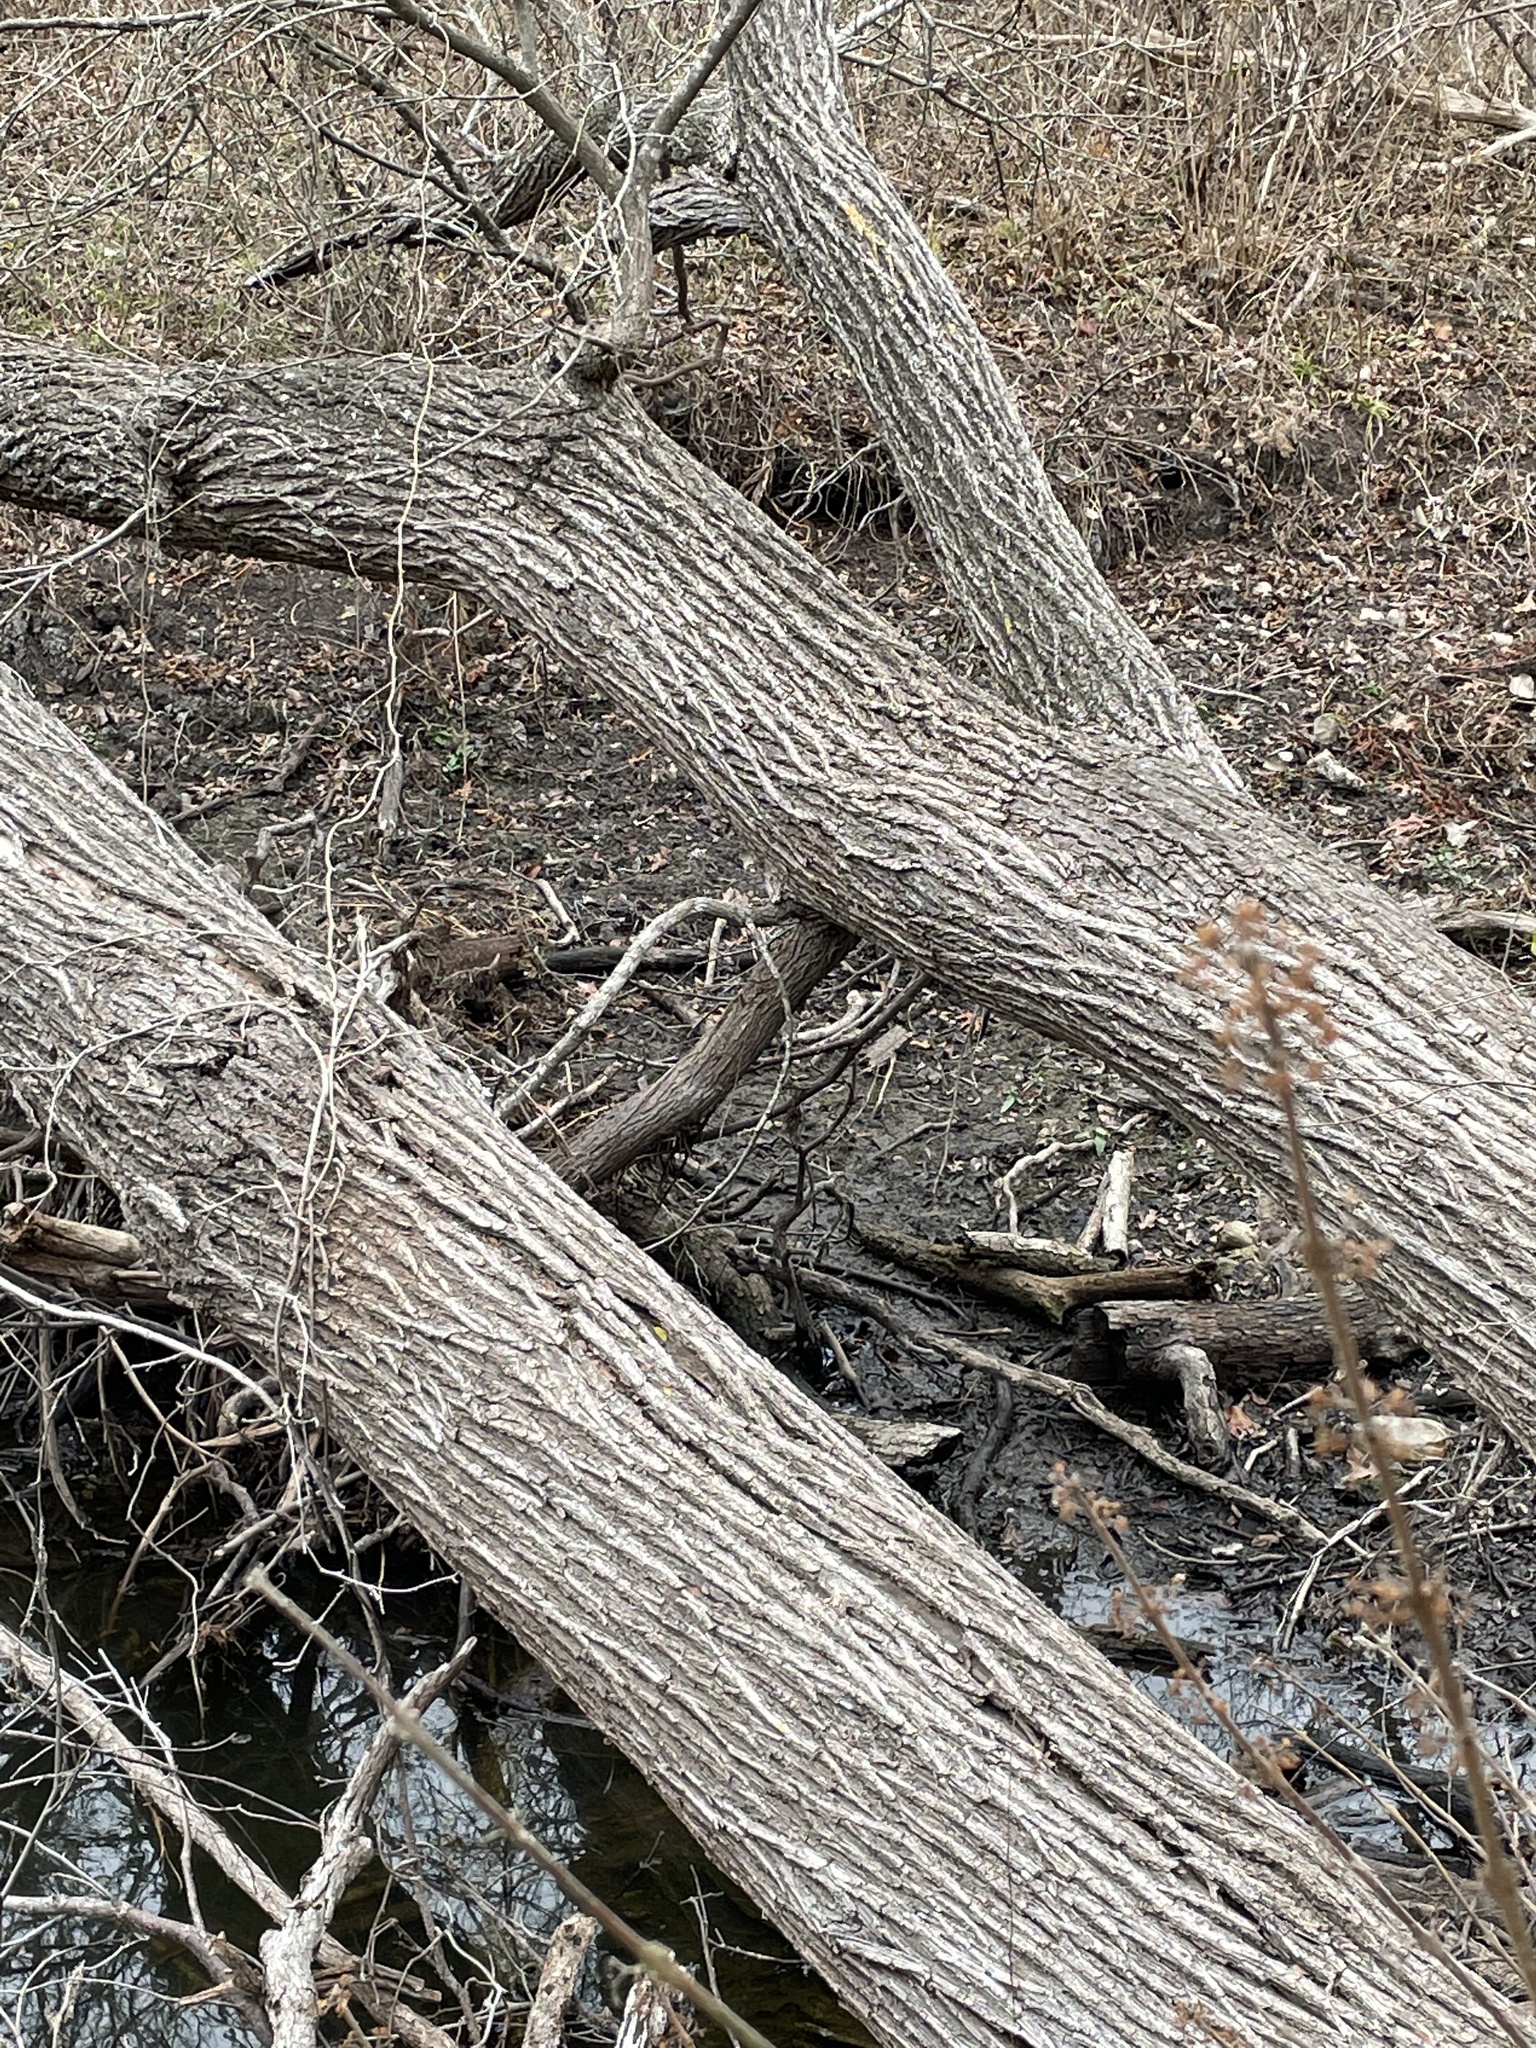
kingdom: Plantae
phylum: Tracheophyta
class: Magnoliopsida
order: Rosales
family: Ulmaceae
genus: Ulmus
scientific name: Ulmus americana
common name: American elm
